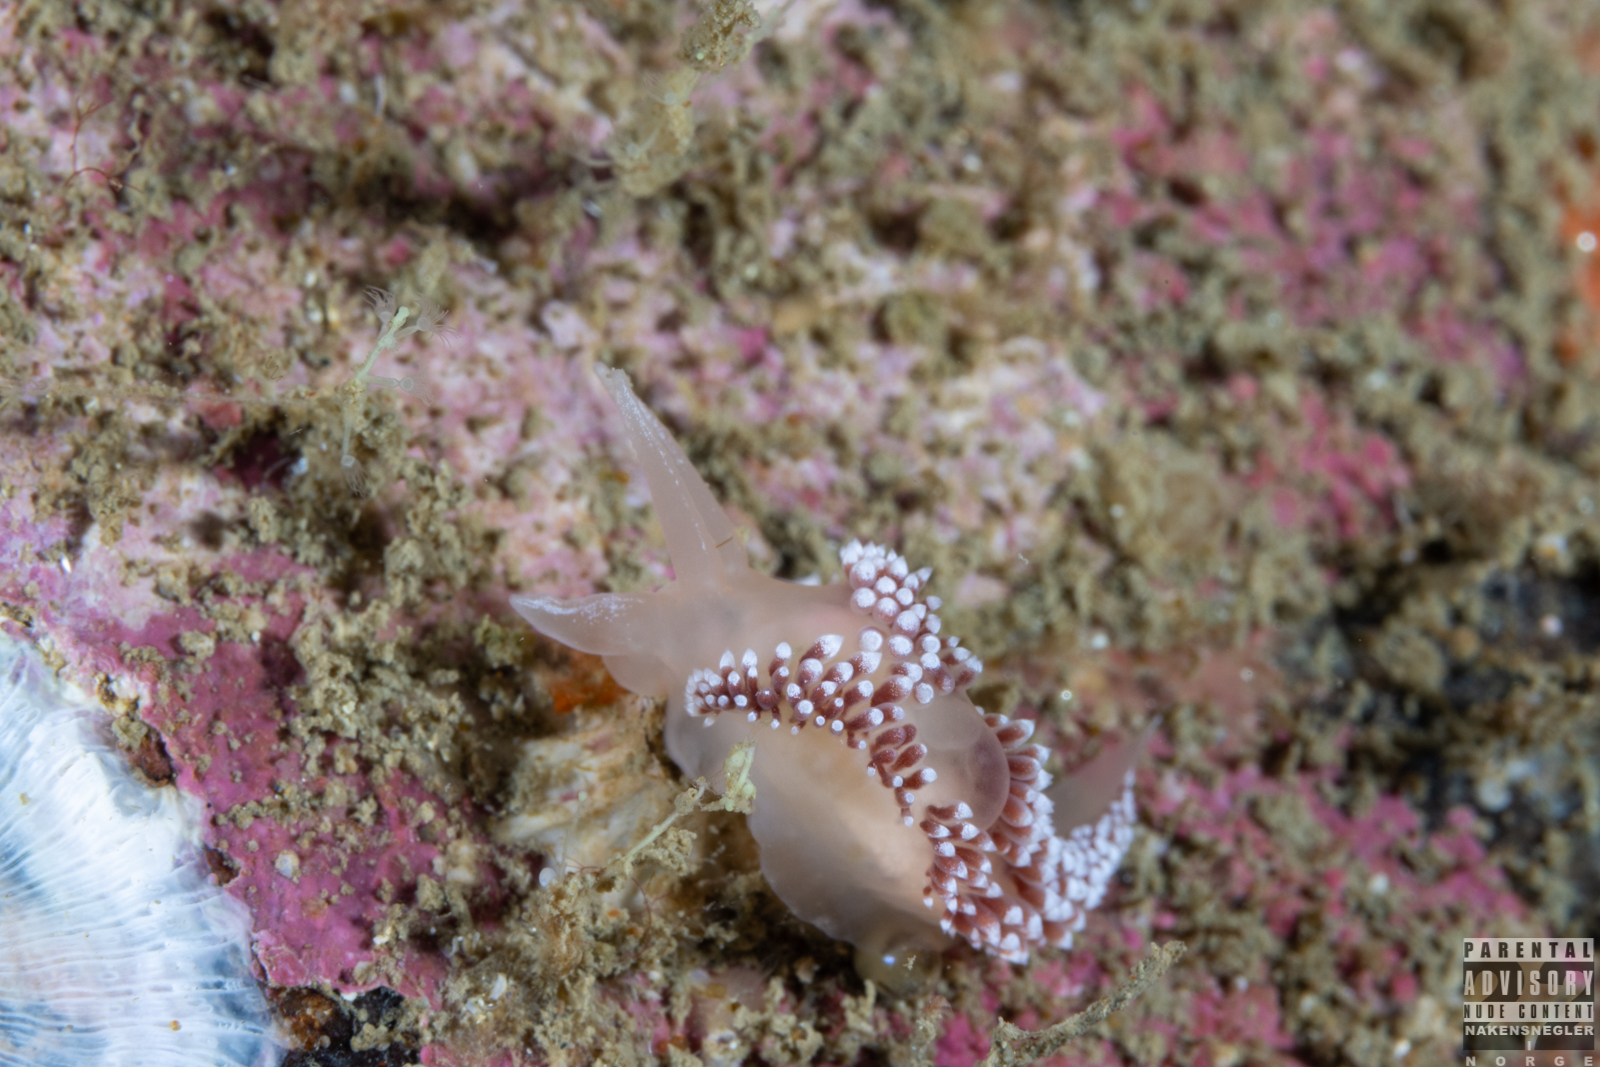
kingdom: Animalia
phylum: Mollusca
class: Gastropoda
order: Nudibranchia
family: Coryphellidae
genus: Coryphella
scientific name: Coryphella verrucosa
